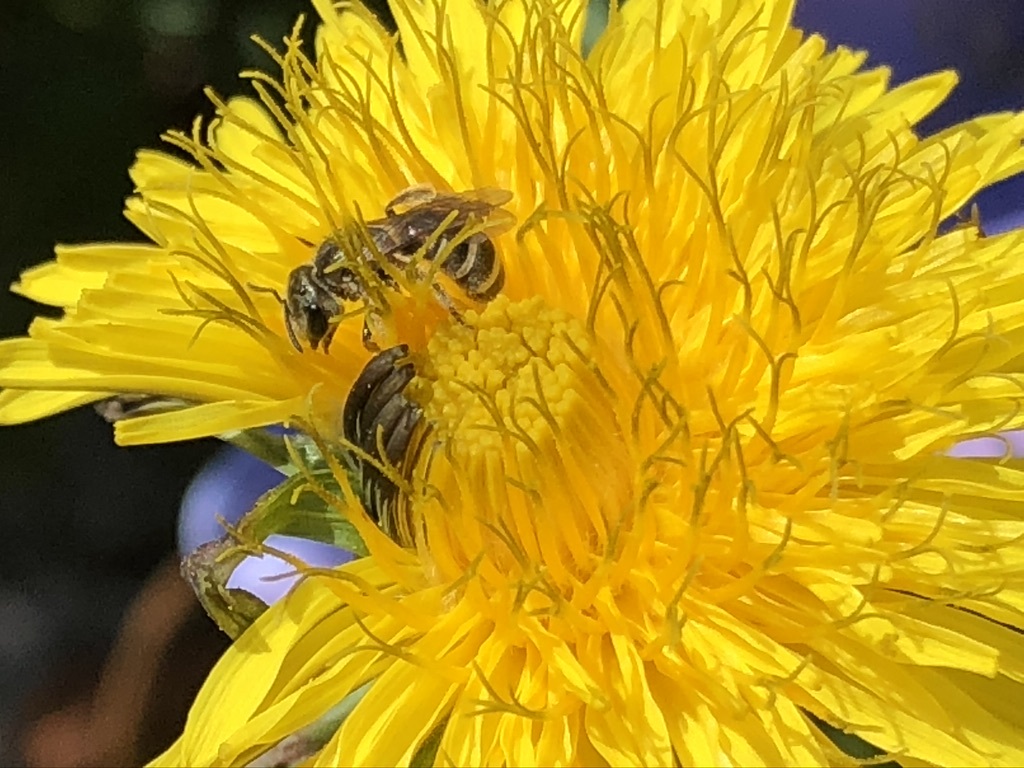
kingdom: Animalia
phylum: Arthropoda
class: Insecta
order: Hymenoptera
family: Halictidae
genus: Halictus
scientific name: Halictus tripartitus
